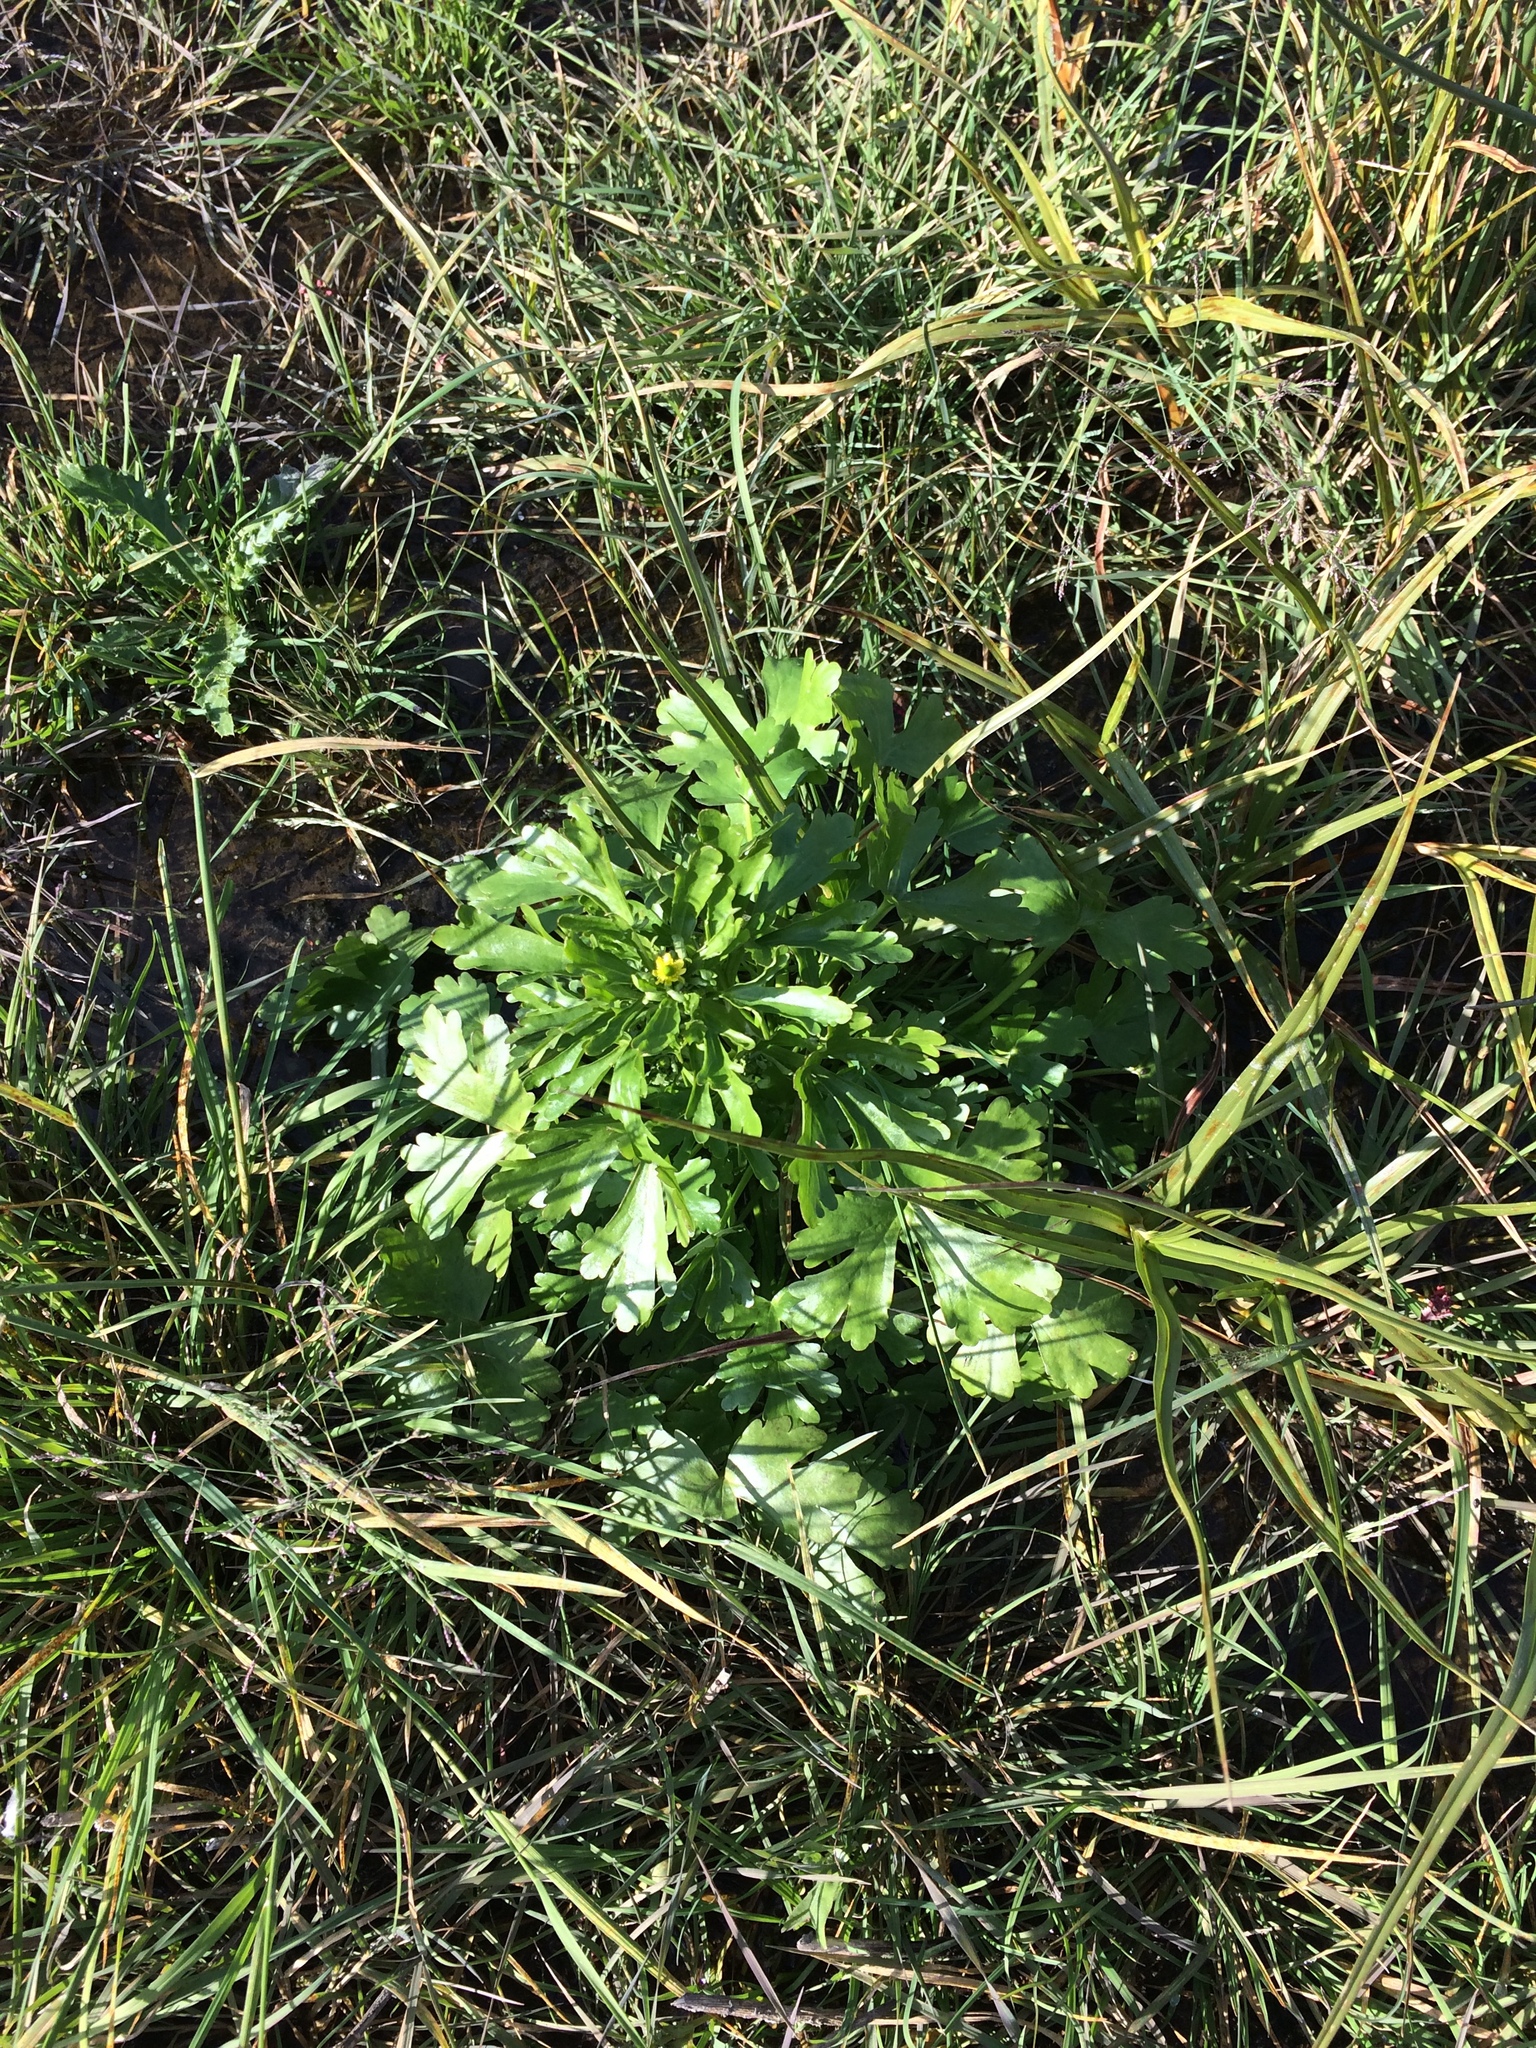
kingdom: Plantae
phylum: Tracheophyta
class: Magnoliopsida
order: Ranunculales
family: Ranunculaceae
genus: Ranunculus
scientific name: Ranunculus sceleratus
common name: Celery-leaved buttercup
